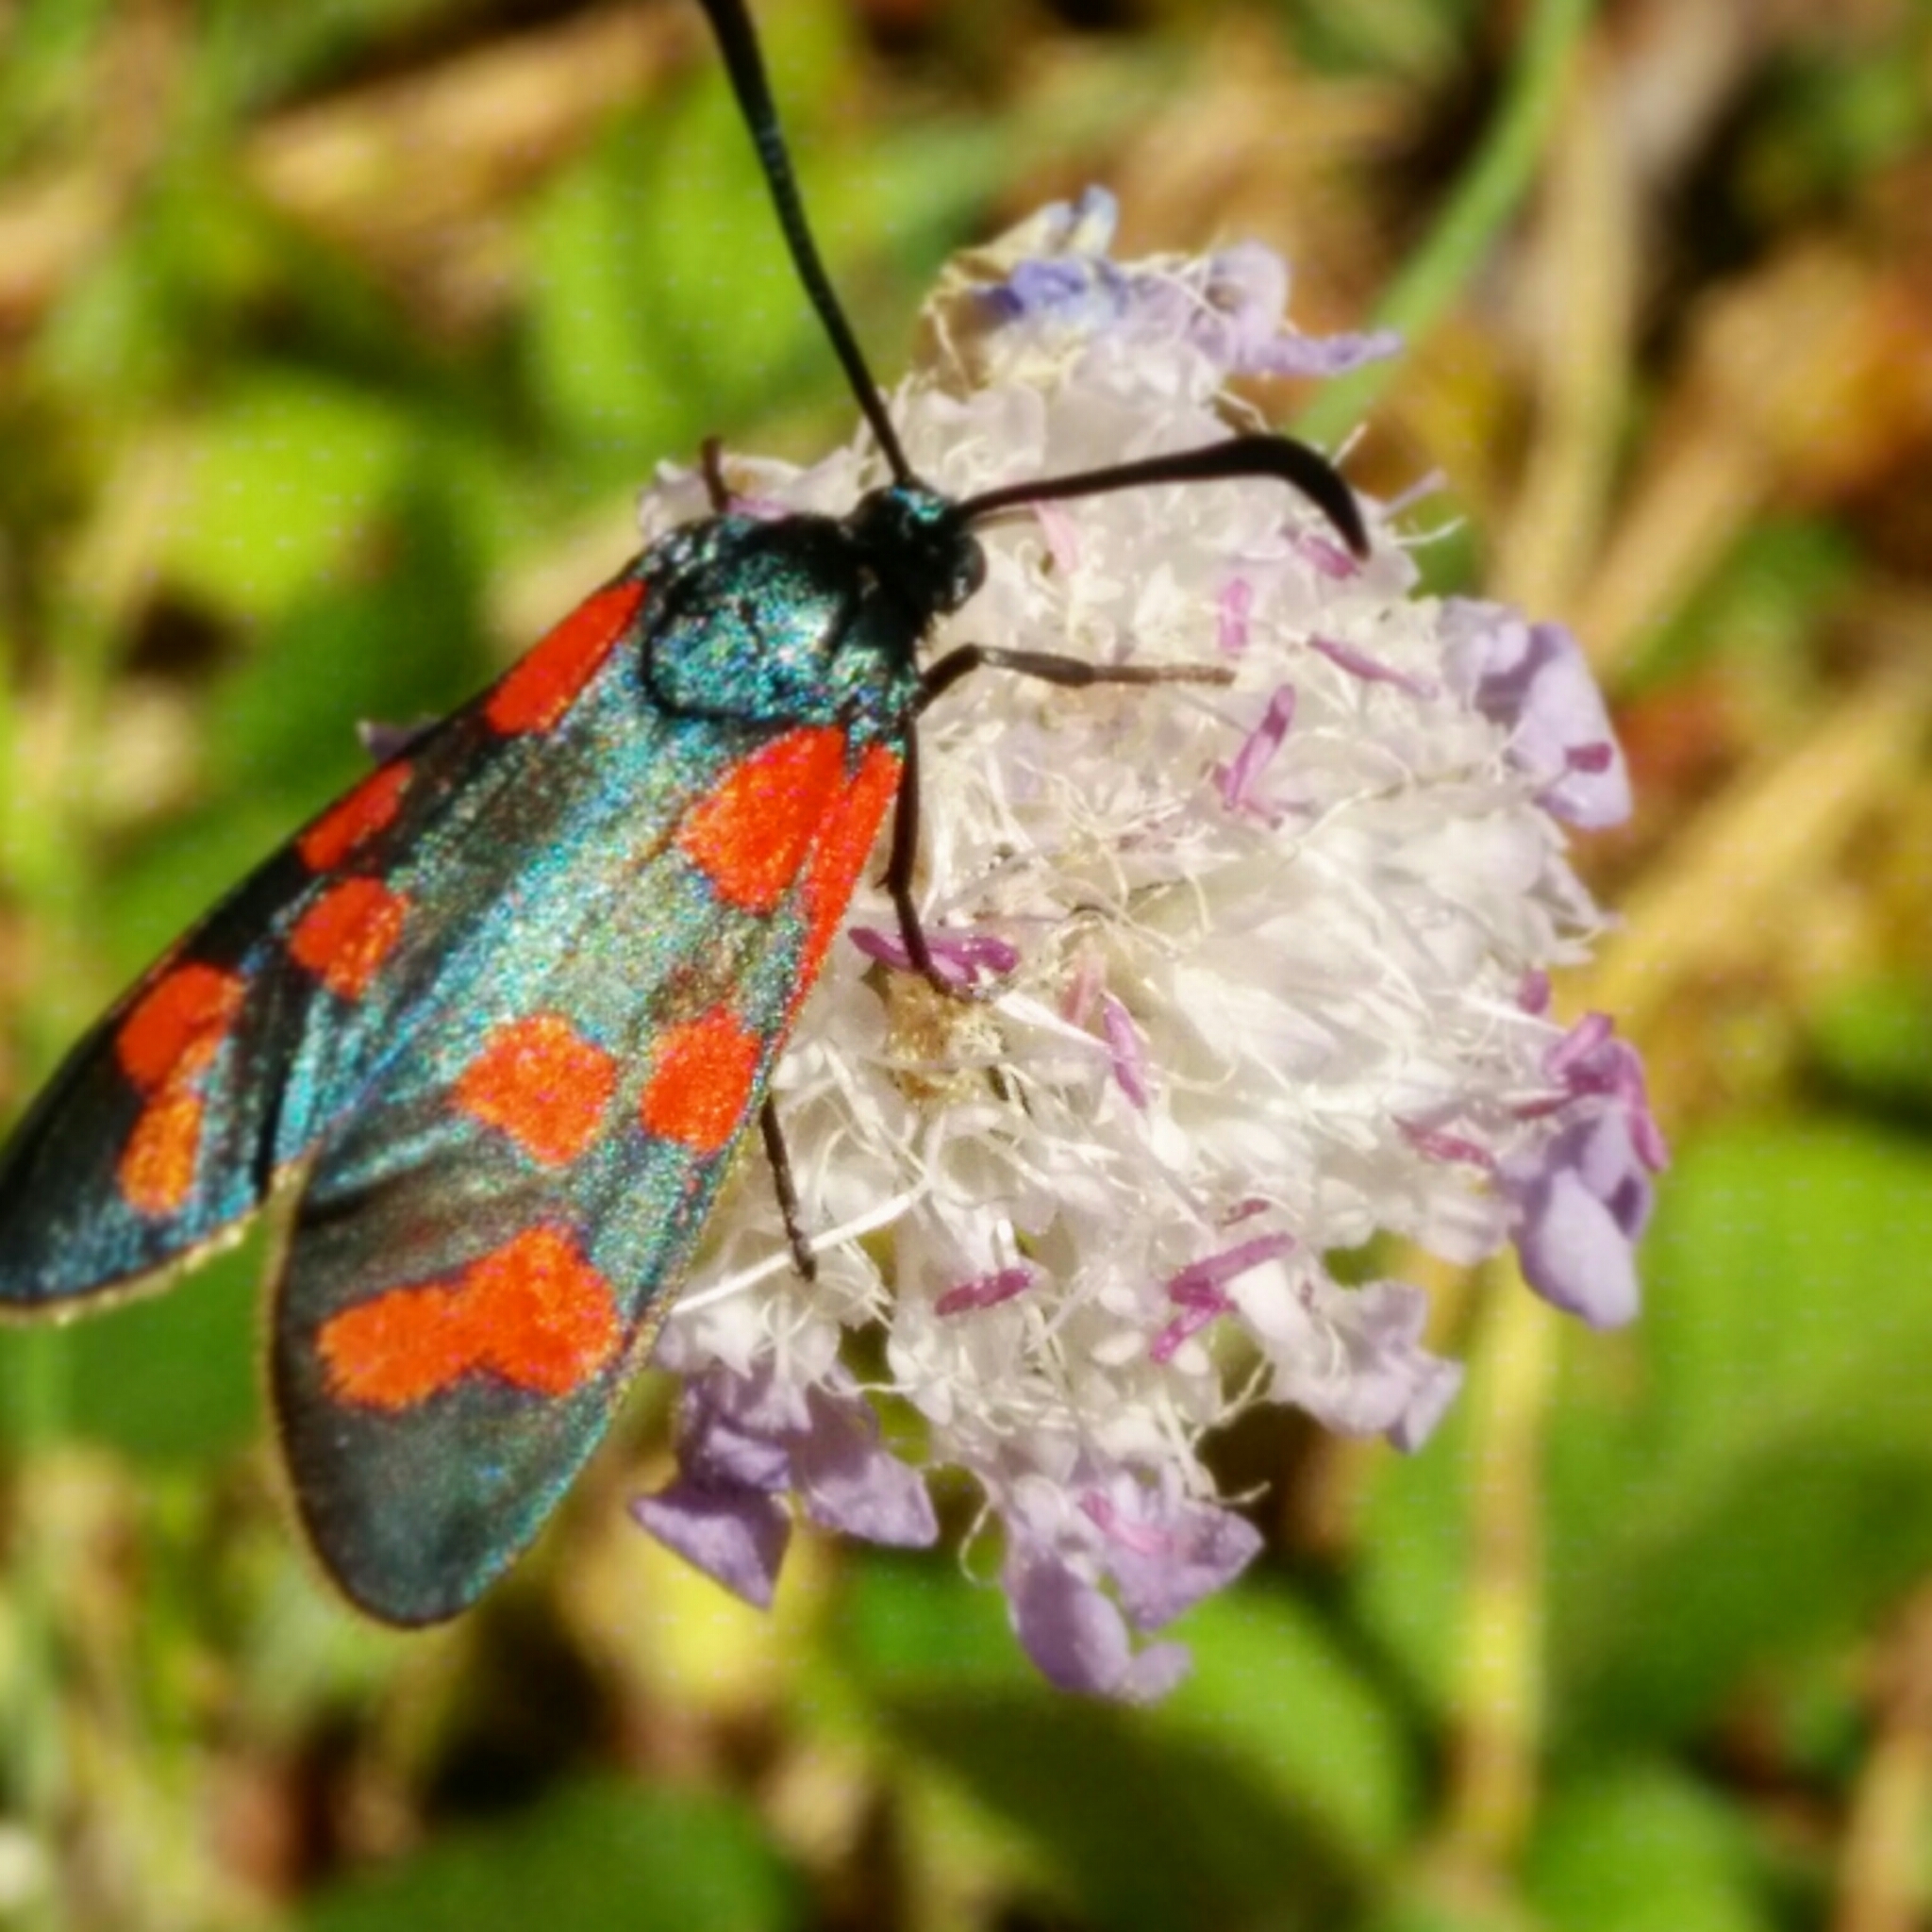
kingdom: Animalia
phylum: Arthropoda
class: Insecta
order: Lepidoptera
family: Zygaenidae
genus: Zygaena
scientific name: Zygaena filipendulae
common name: Six-spot burnet
